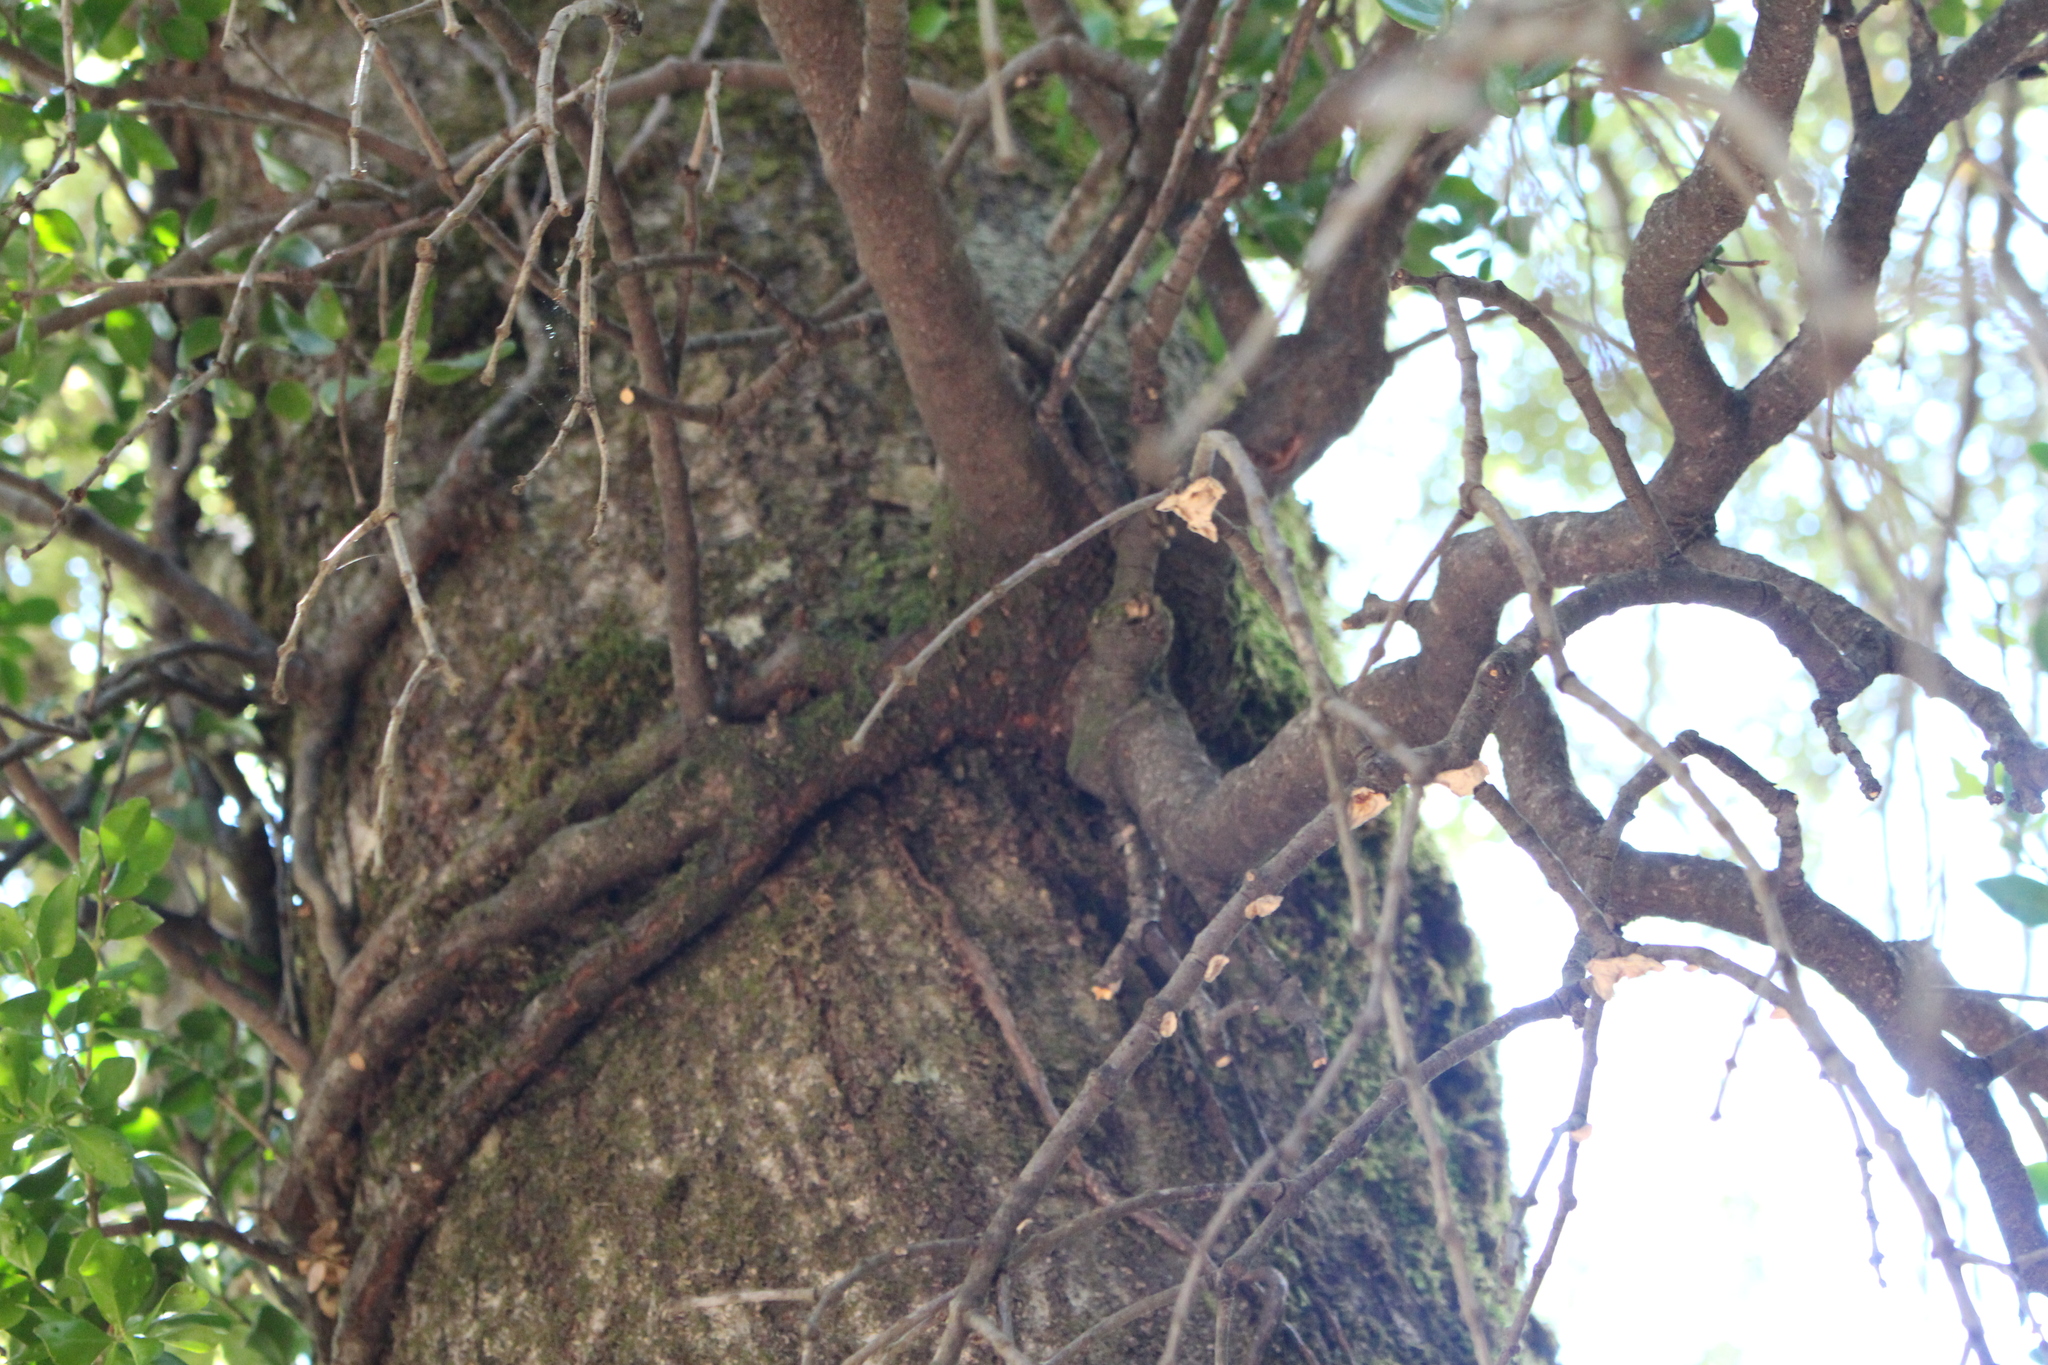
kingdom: Plantae
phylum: Tracheophyta
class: Magnoliopsida
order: Santalales
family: Loranthaceae
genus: Peraxilla
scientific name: Peraxilla tetrapetala
